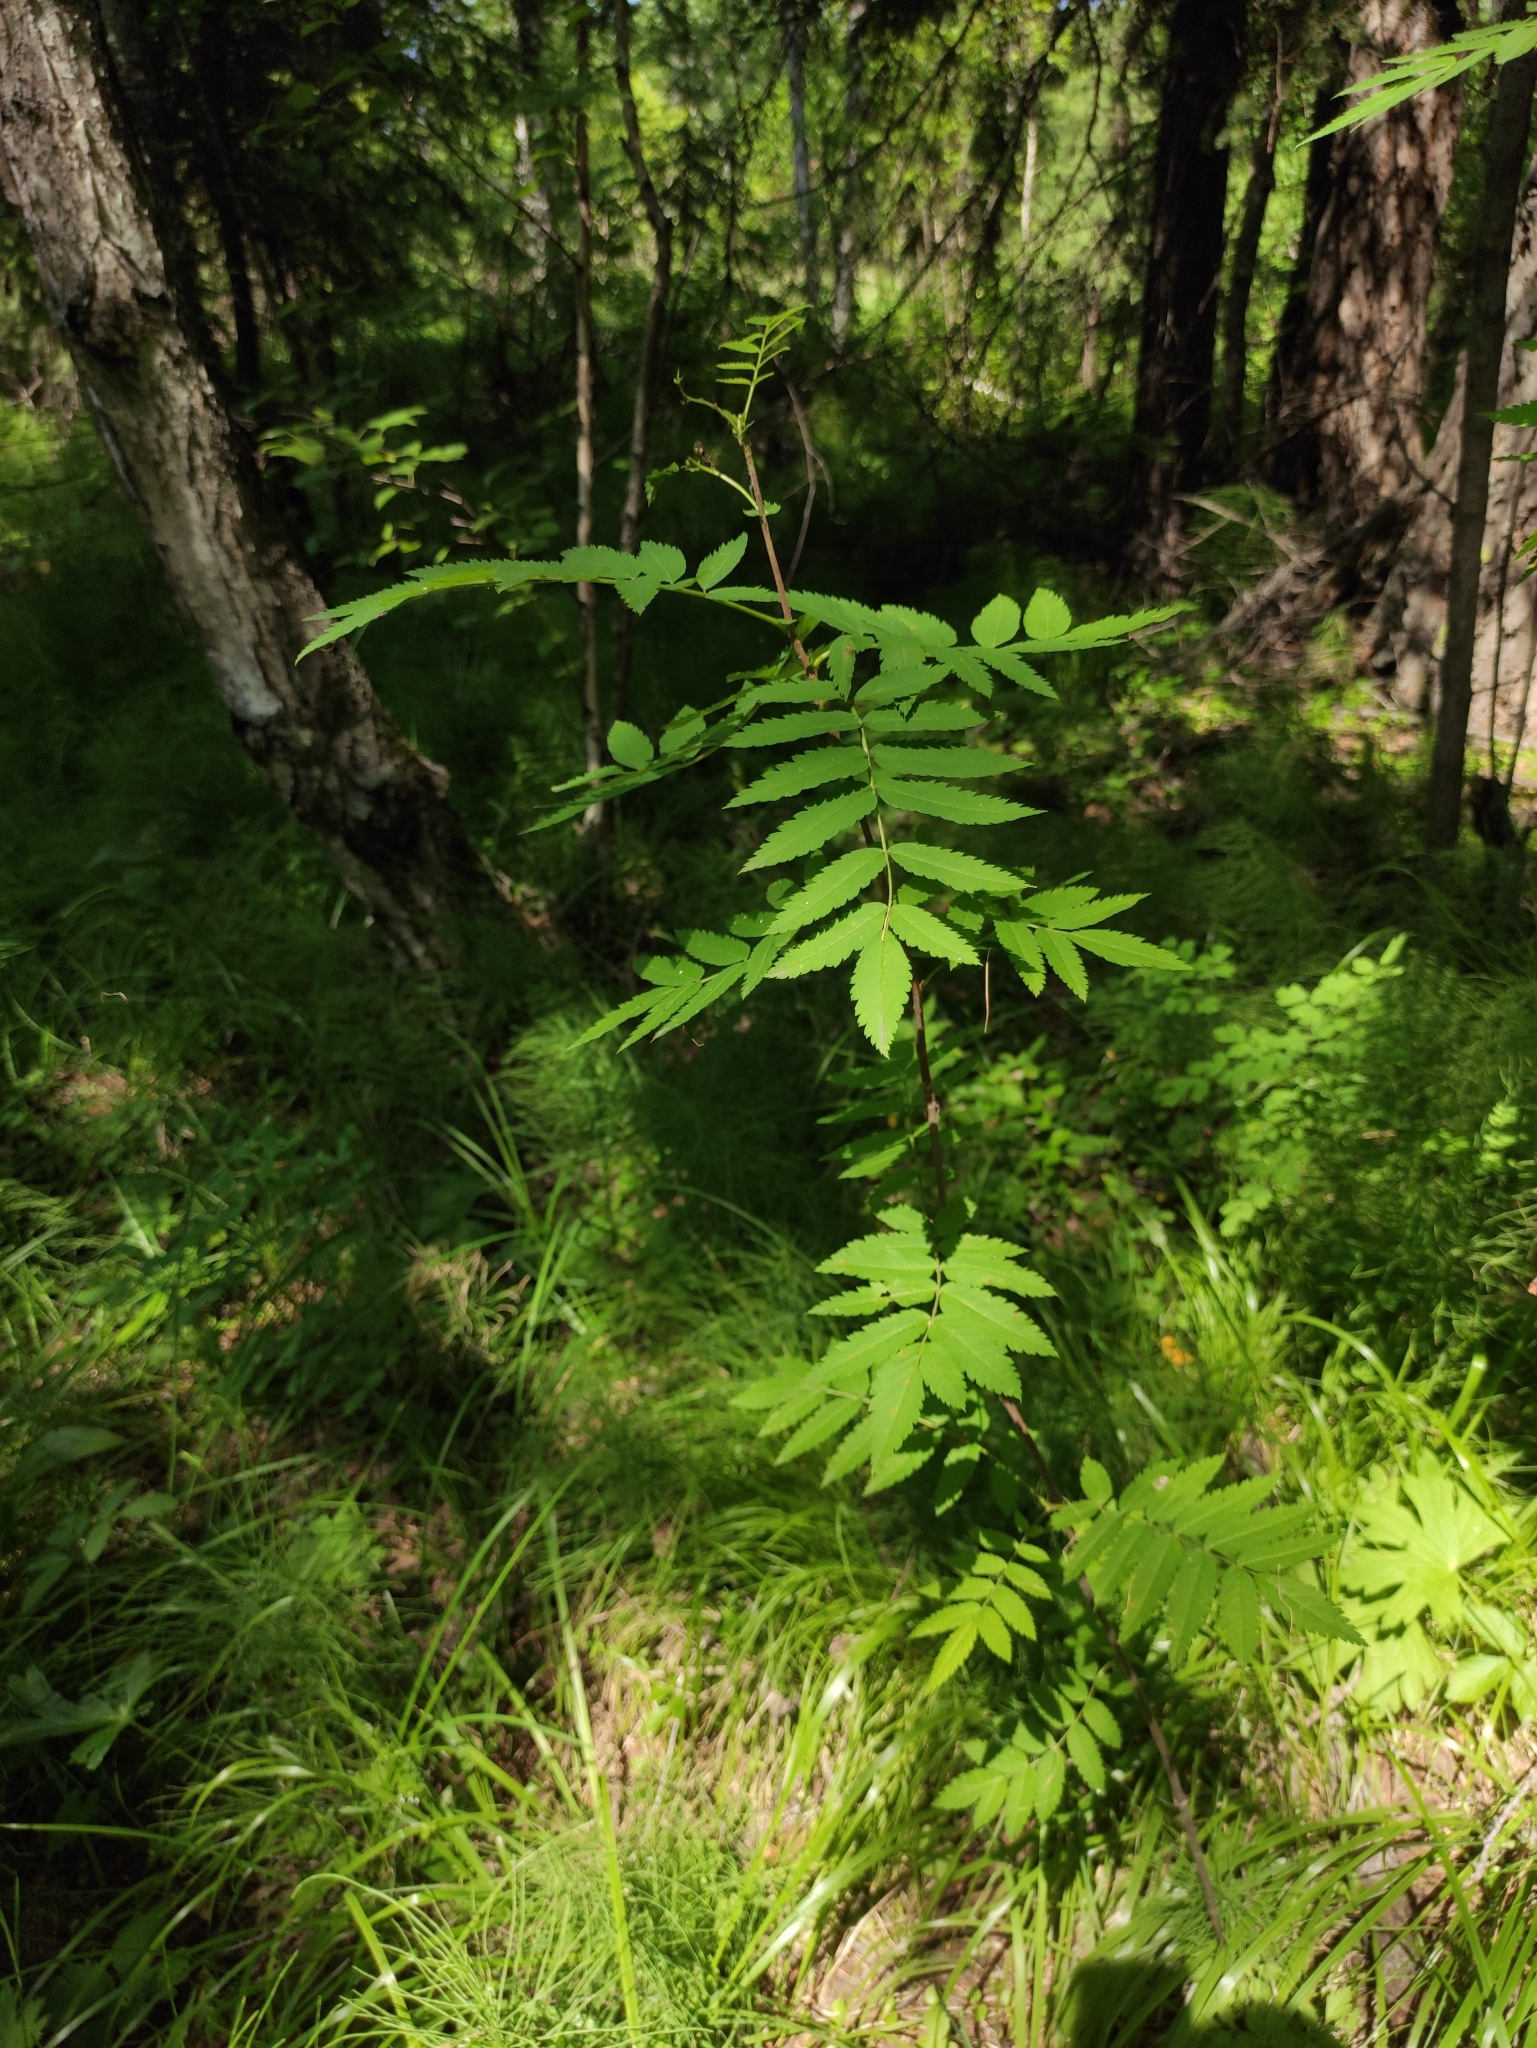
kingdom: Plantae
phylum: Tracheophyta
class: Magnoliopsida
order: Rosales
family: Rosaceae
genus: Sorbus
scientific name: Sorbus aucuparia
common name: Rowan
